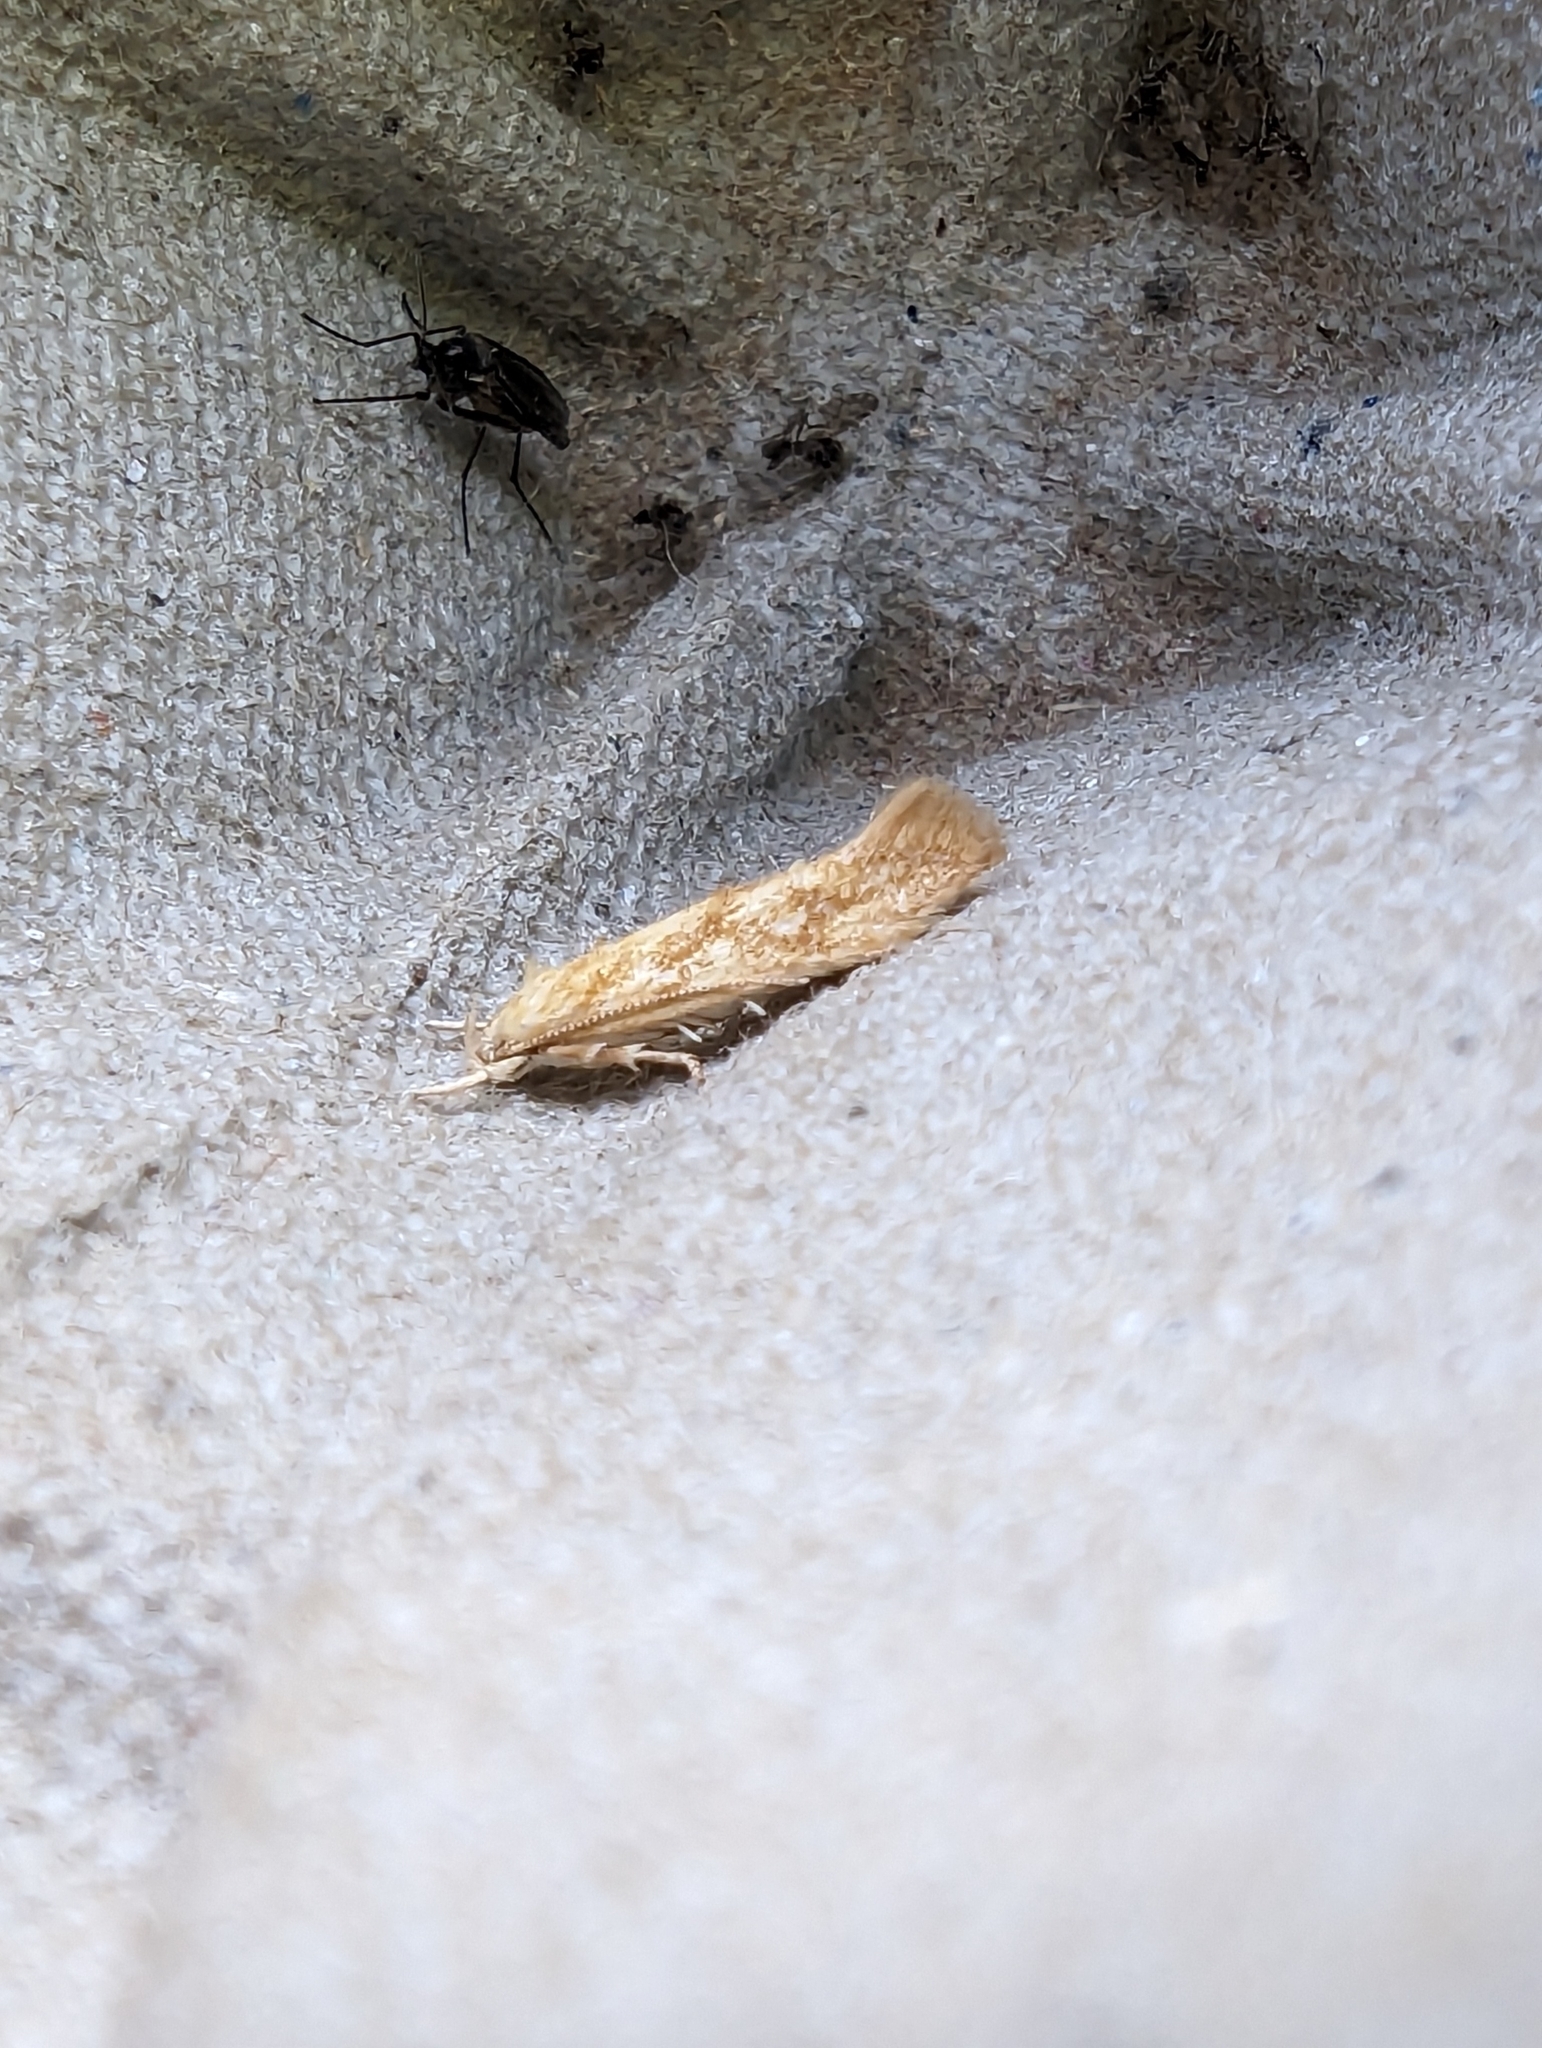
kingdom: Animalia
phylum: Arthropoda
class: Insecta
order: Lepidoptera
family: Momphidae
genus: Mompha
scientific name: Mompha epilobiella
